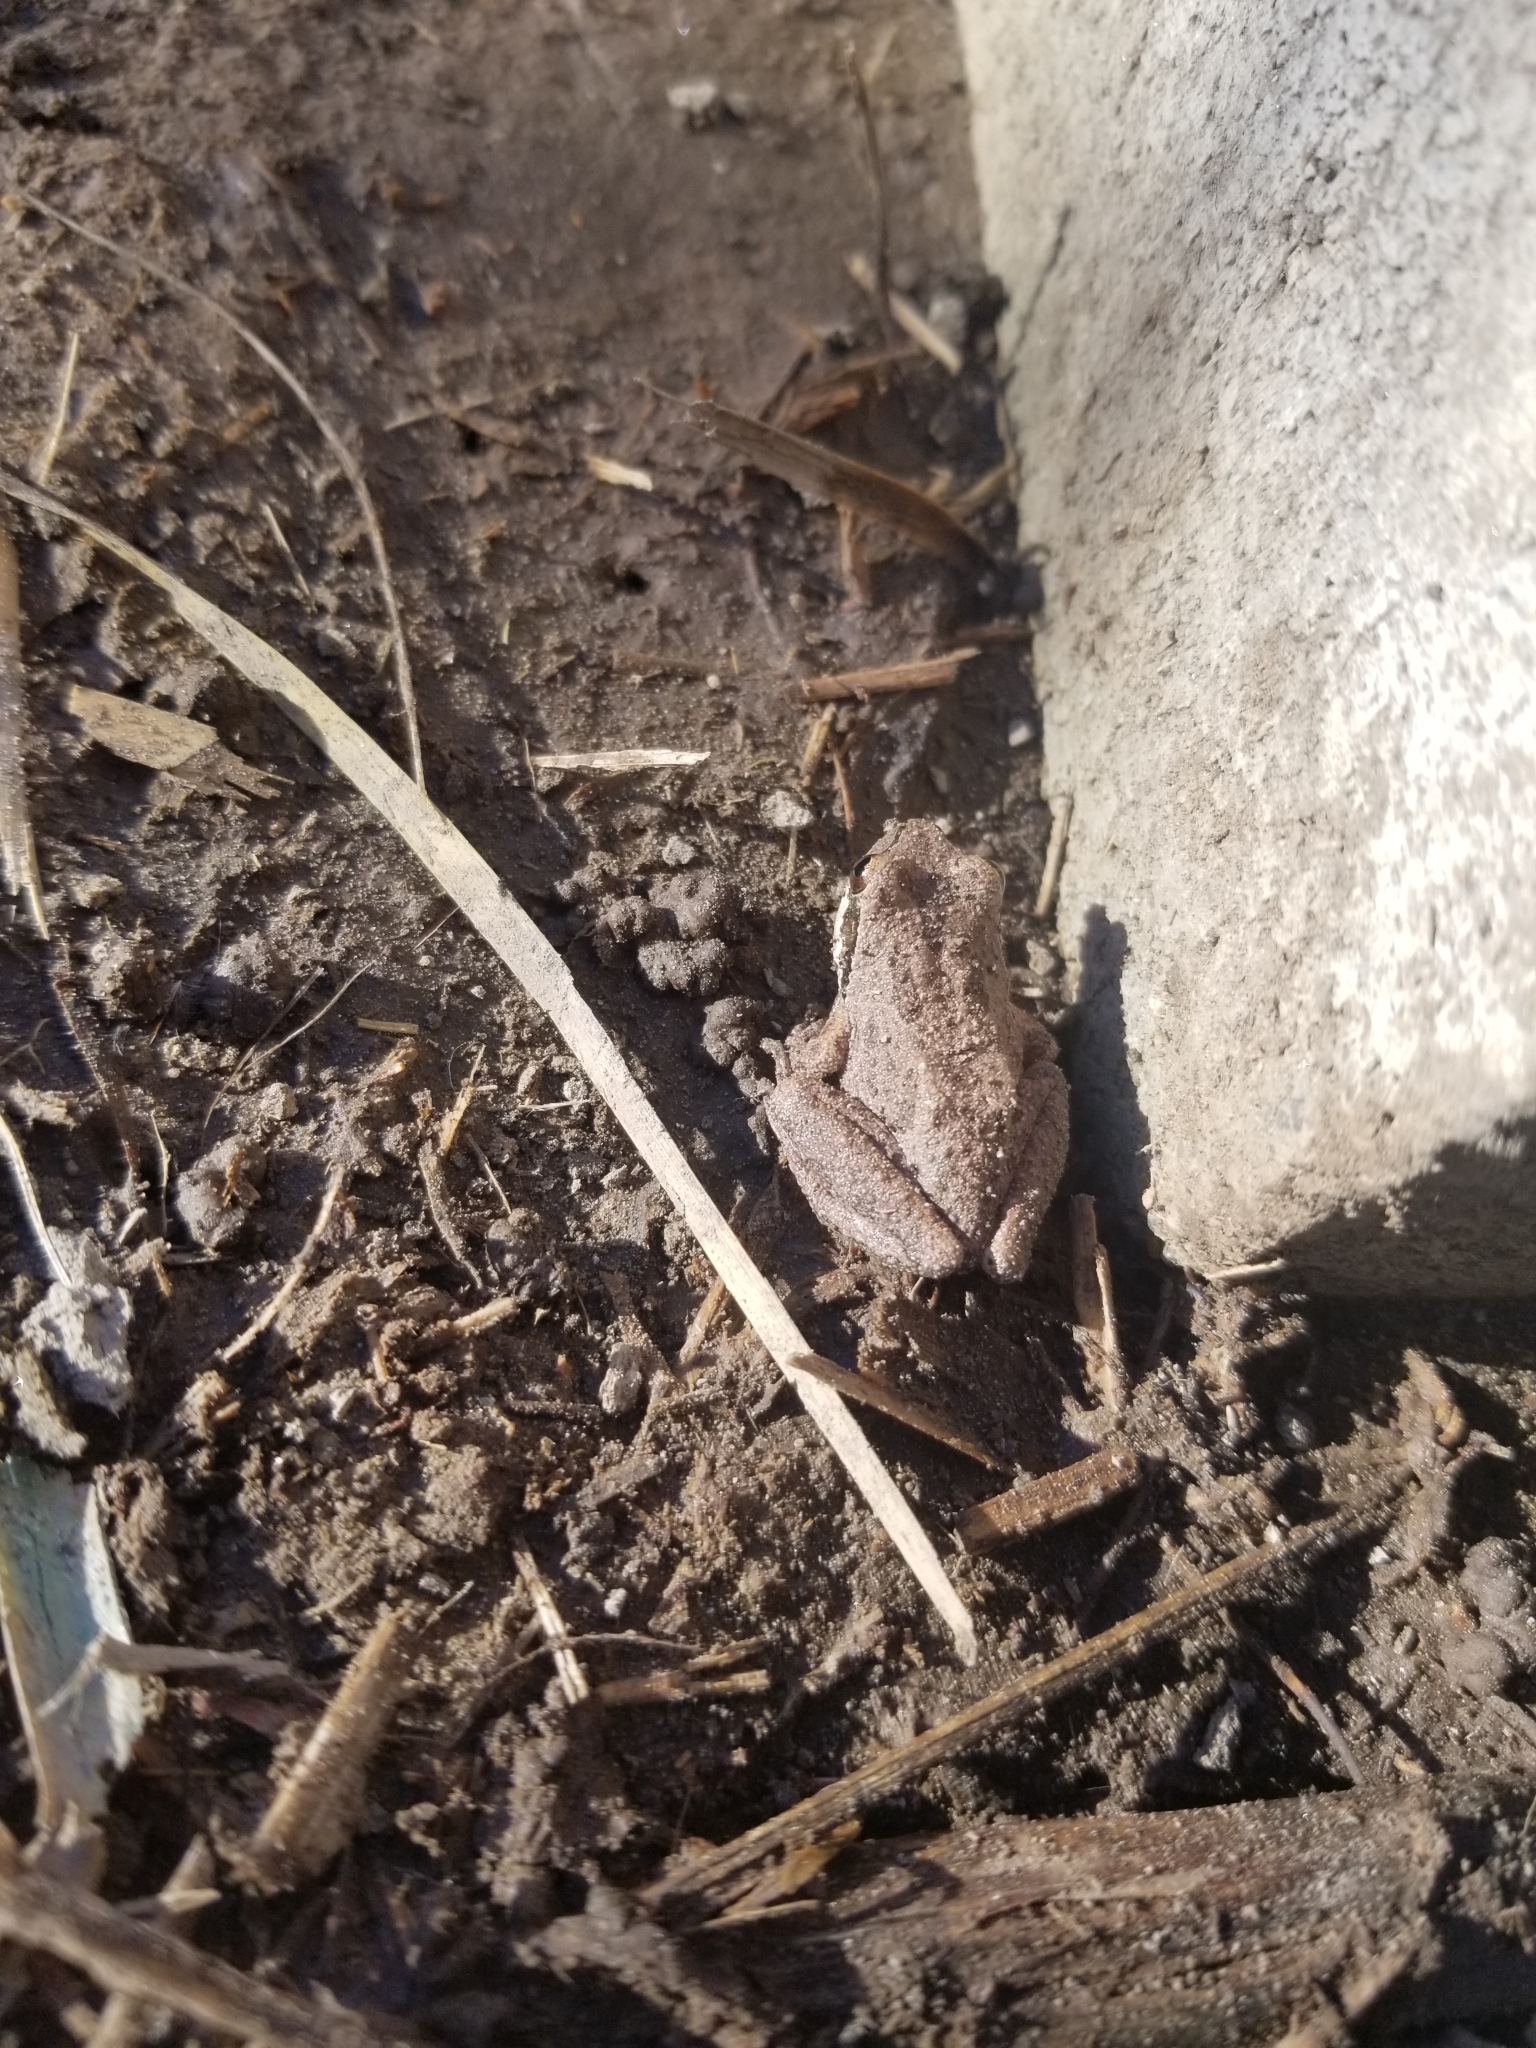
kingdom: Animalia
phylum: Chordata
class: Amphibia
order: Anura
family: Hylidae
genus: Pseudacris
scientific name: Pseudacris regilla
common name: Pacific chorus frog
